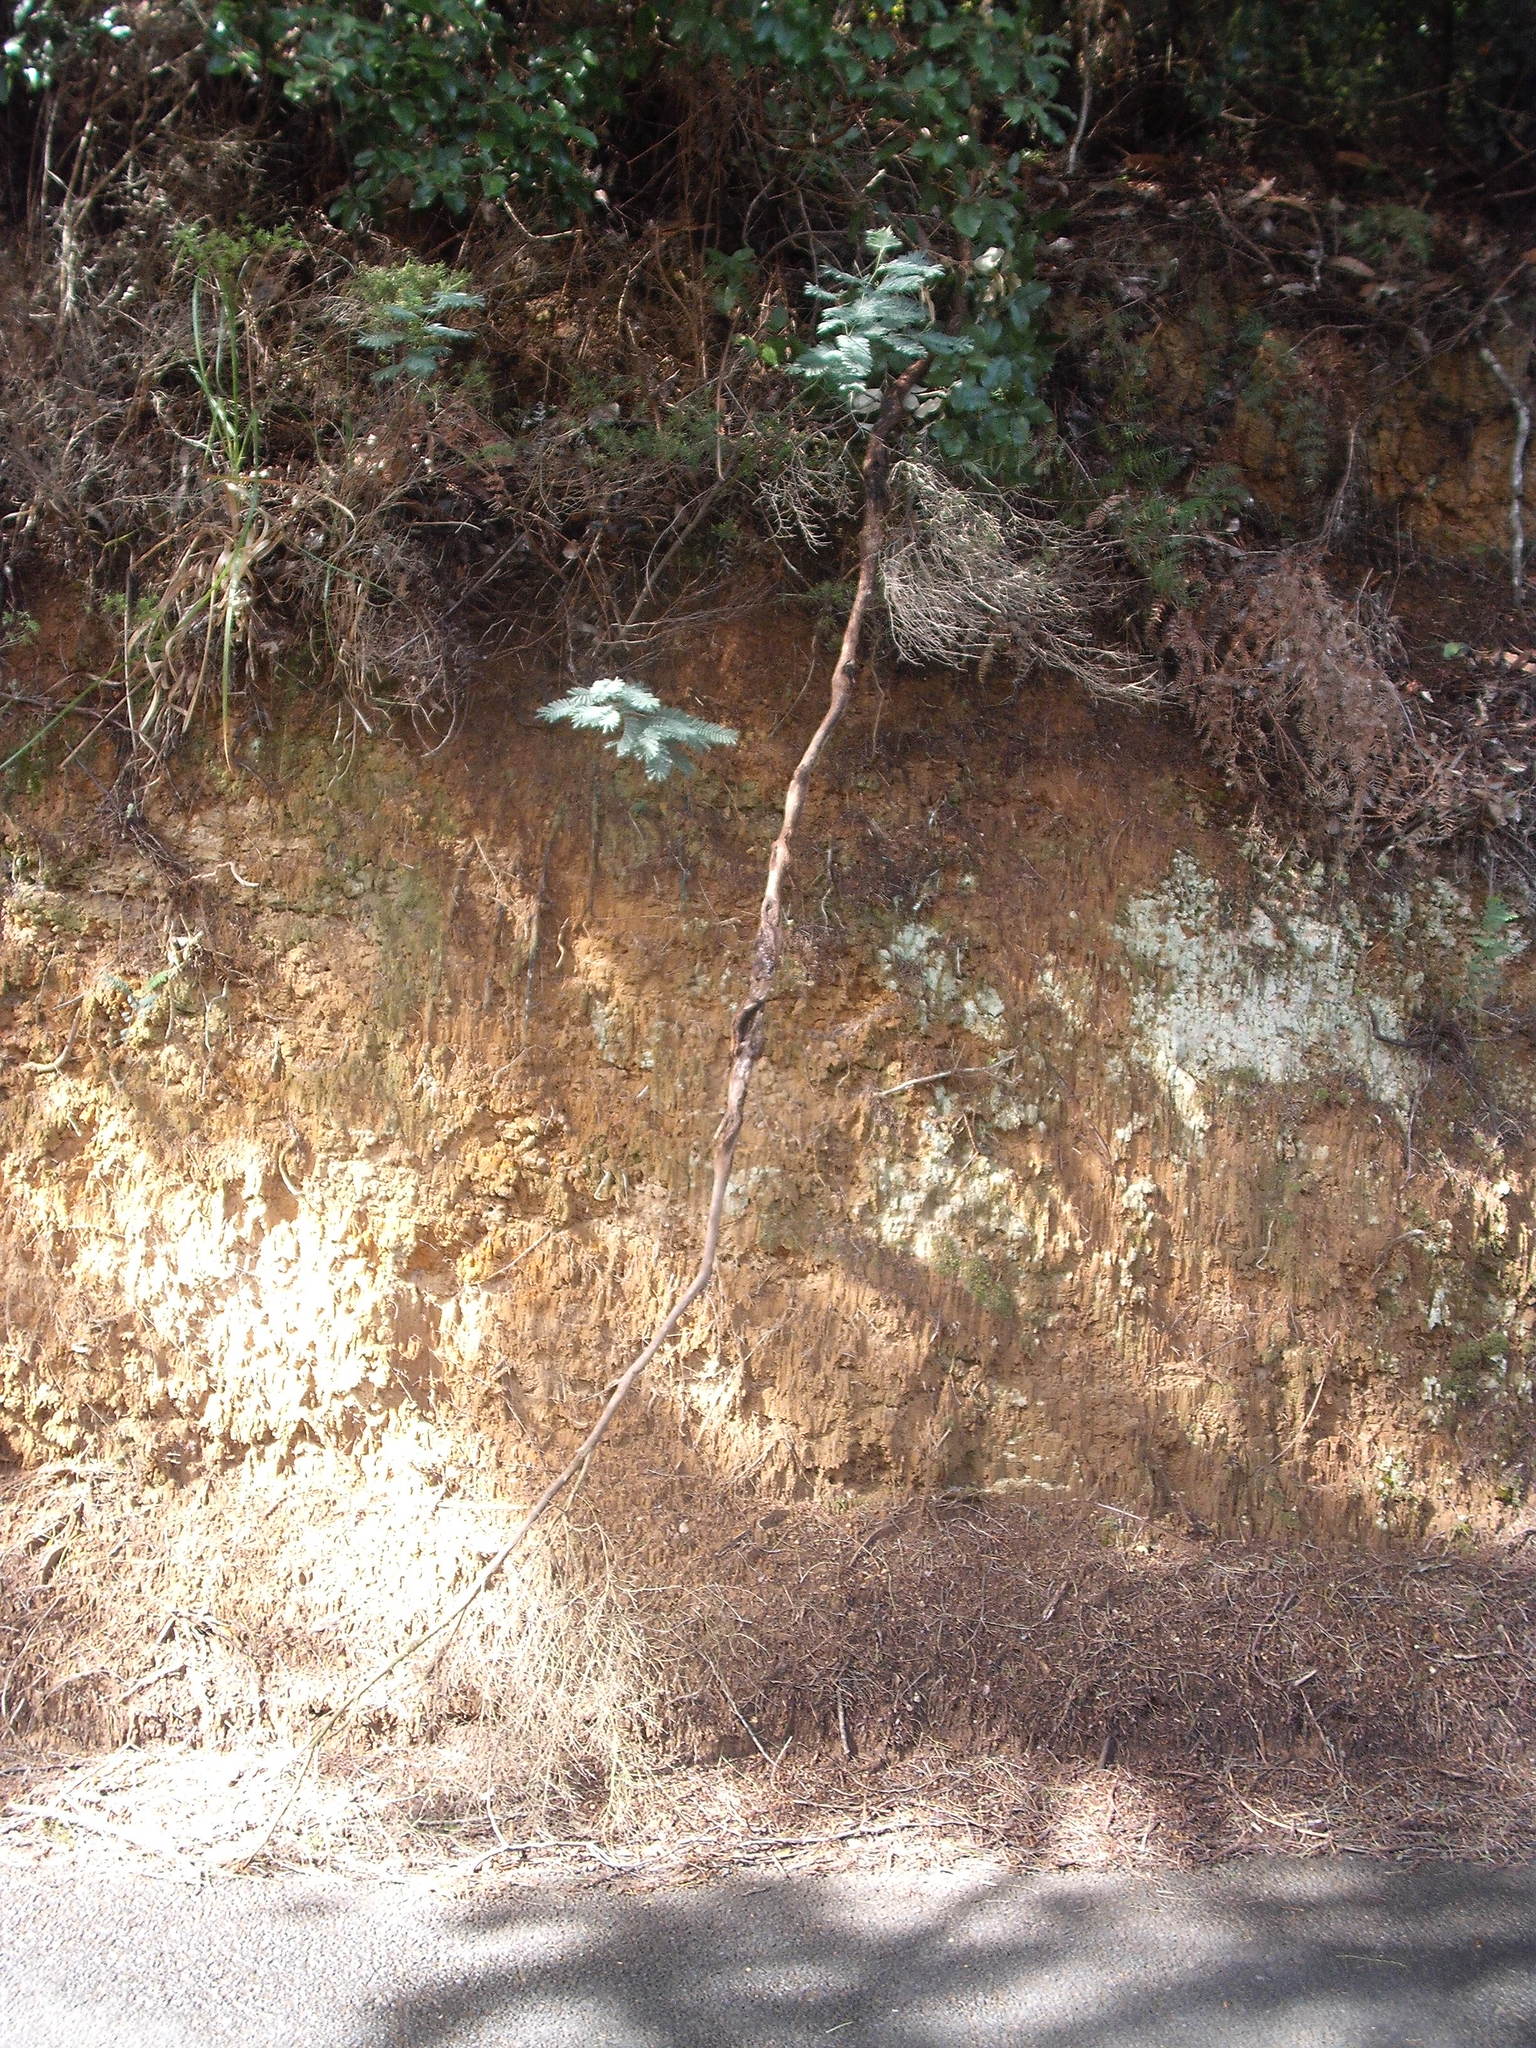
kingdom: Plantae
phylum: Tracheophyta
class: Magnoliopsida
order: Fabales
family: Fabaceae
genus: Acacia
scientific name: Acacia dealbata
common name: Silver wattle
